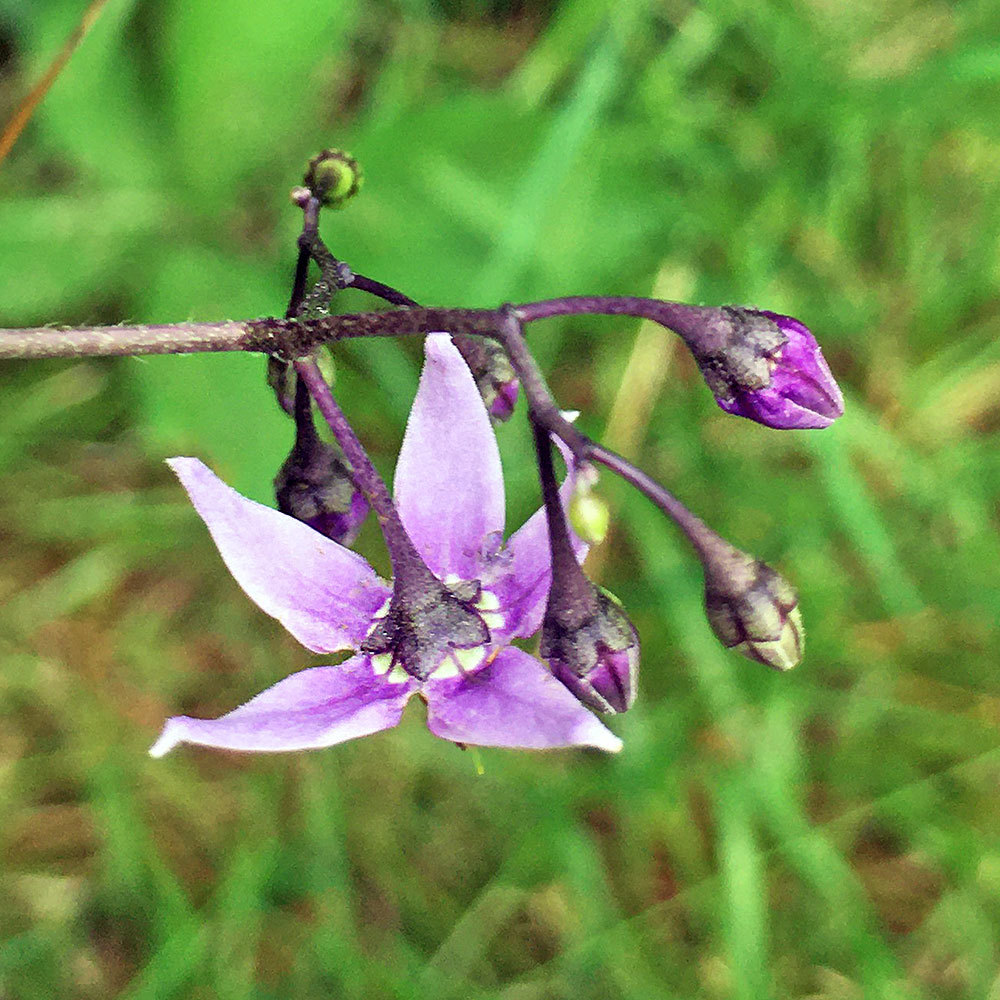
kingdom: Plantae
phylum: Tracheophyta
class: Magnoliopsida
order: Solanales
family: Solanaceae
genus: Solanum
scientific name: Solanum dulcamara
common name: Climbing nightshade
